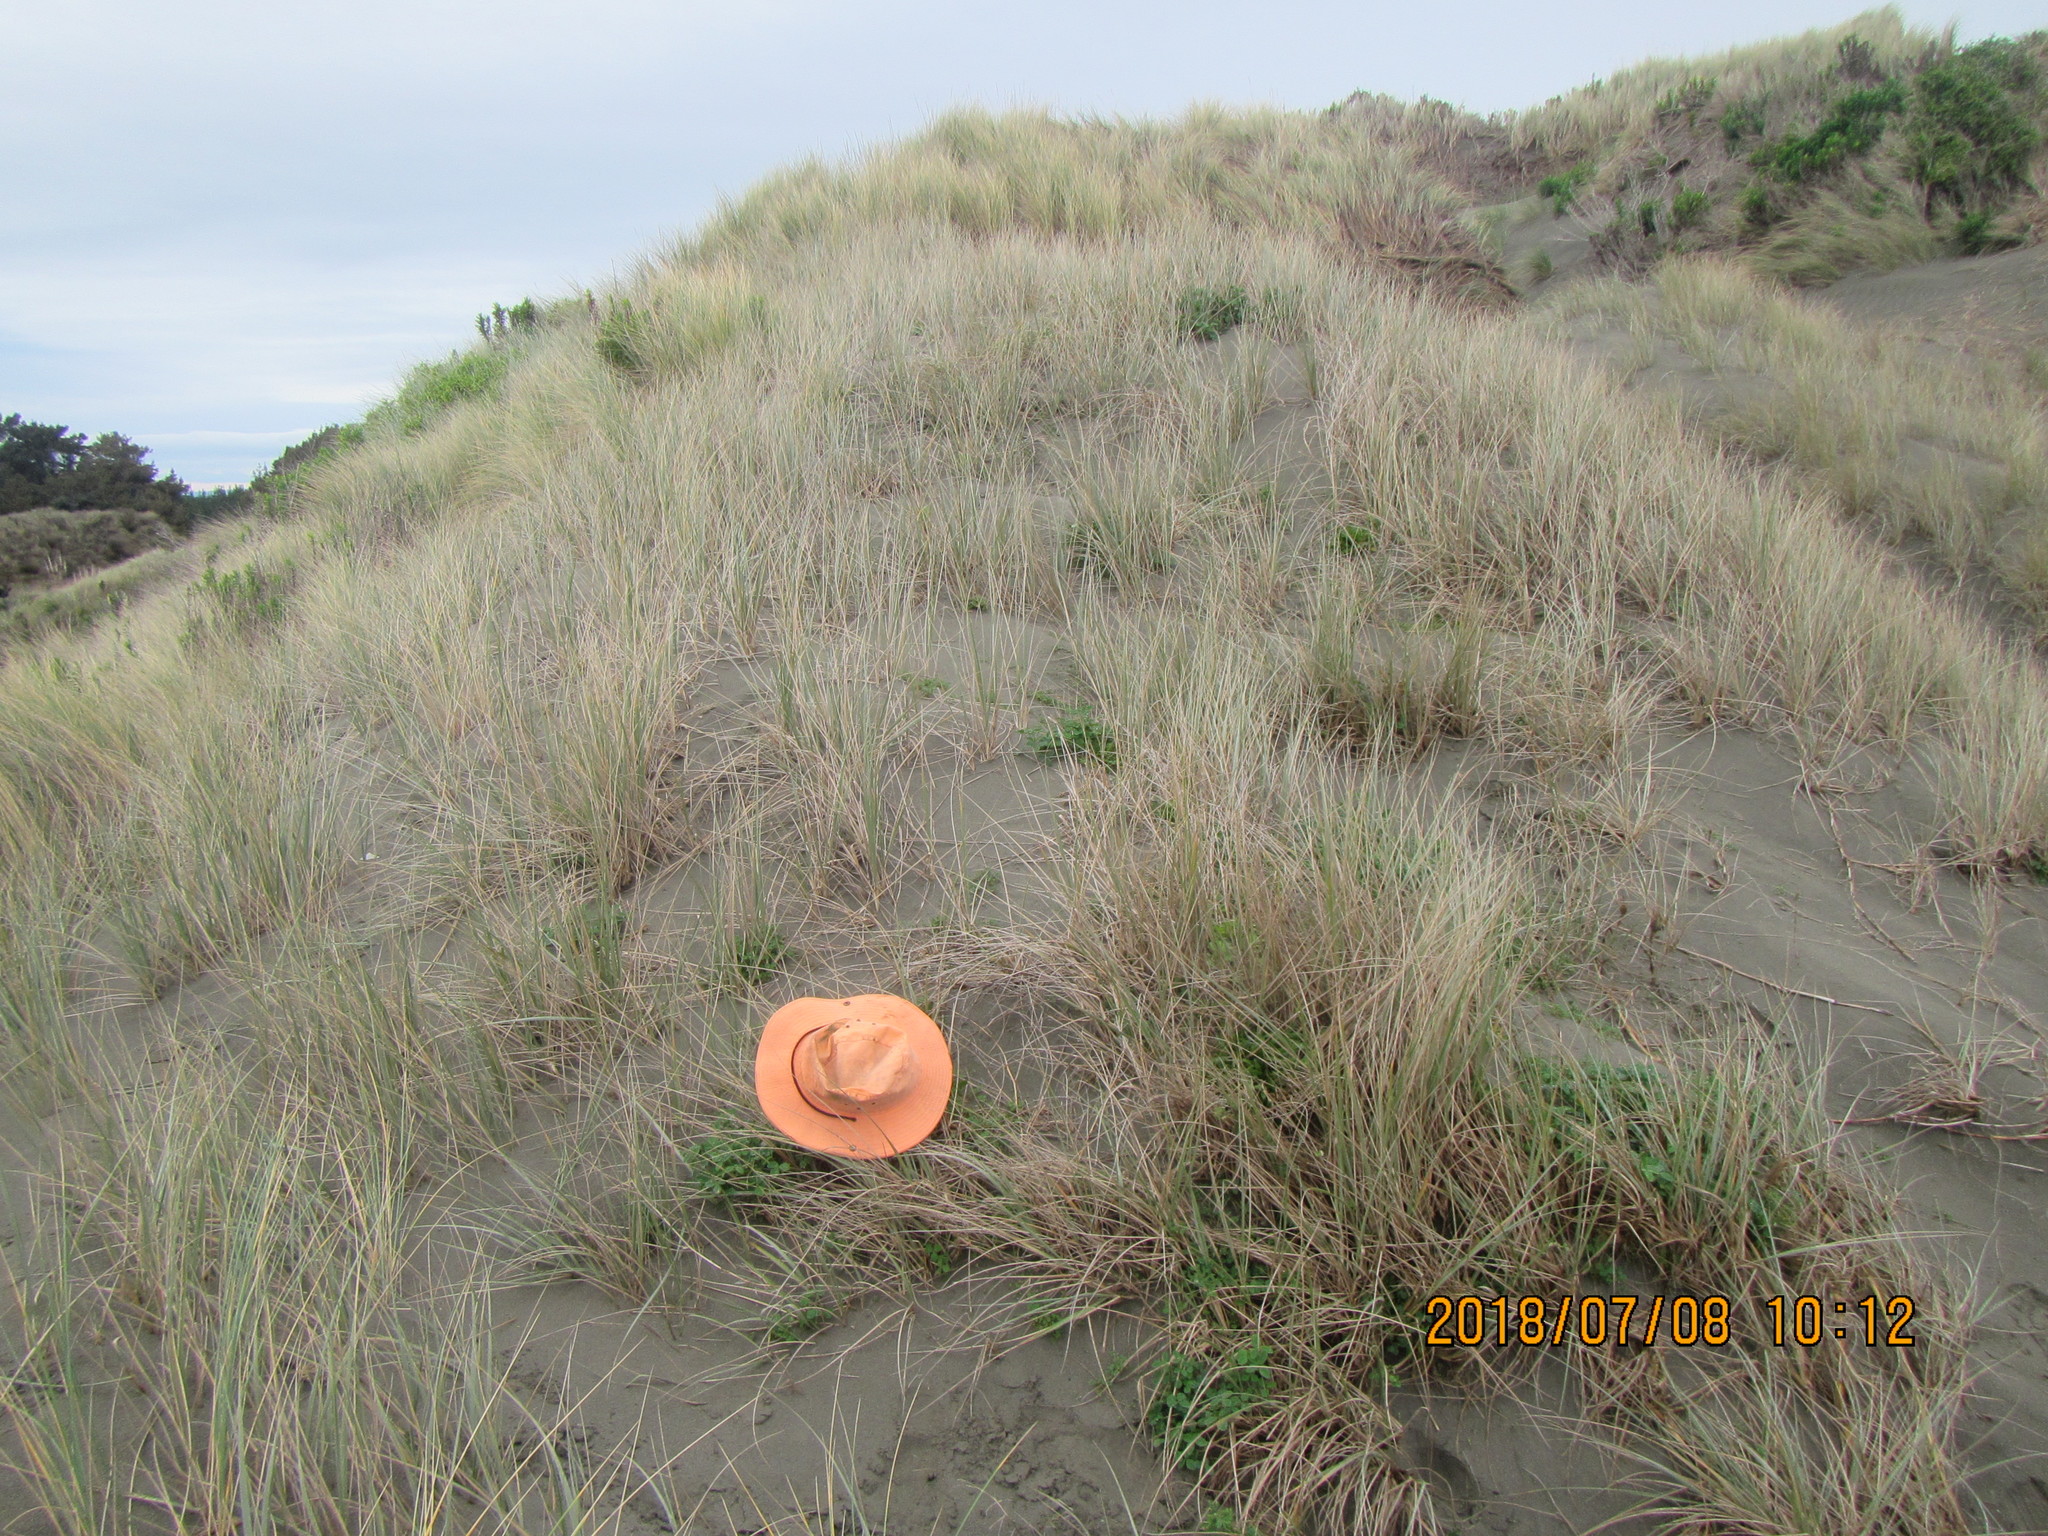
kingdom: Animalia
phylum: Arthropoda
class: Arachnida
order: Araneae
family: Theridiidae
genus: Latrodectus
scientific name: Latrodectus katipo
